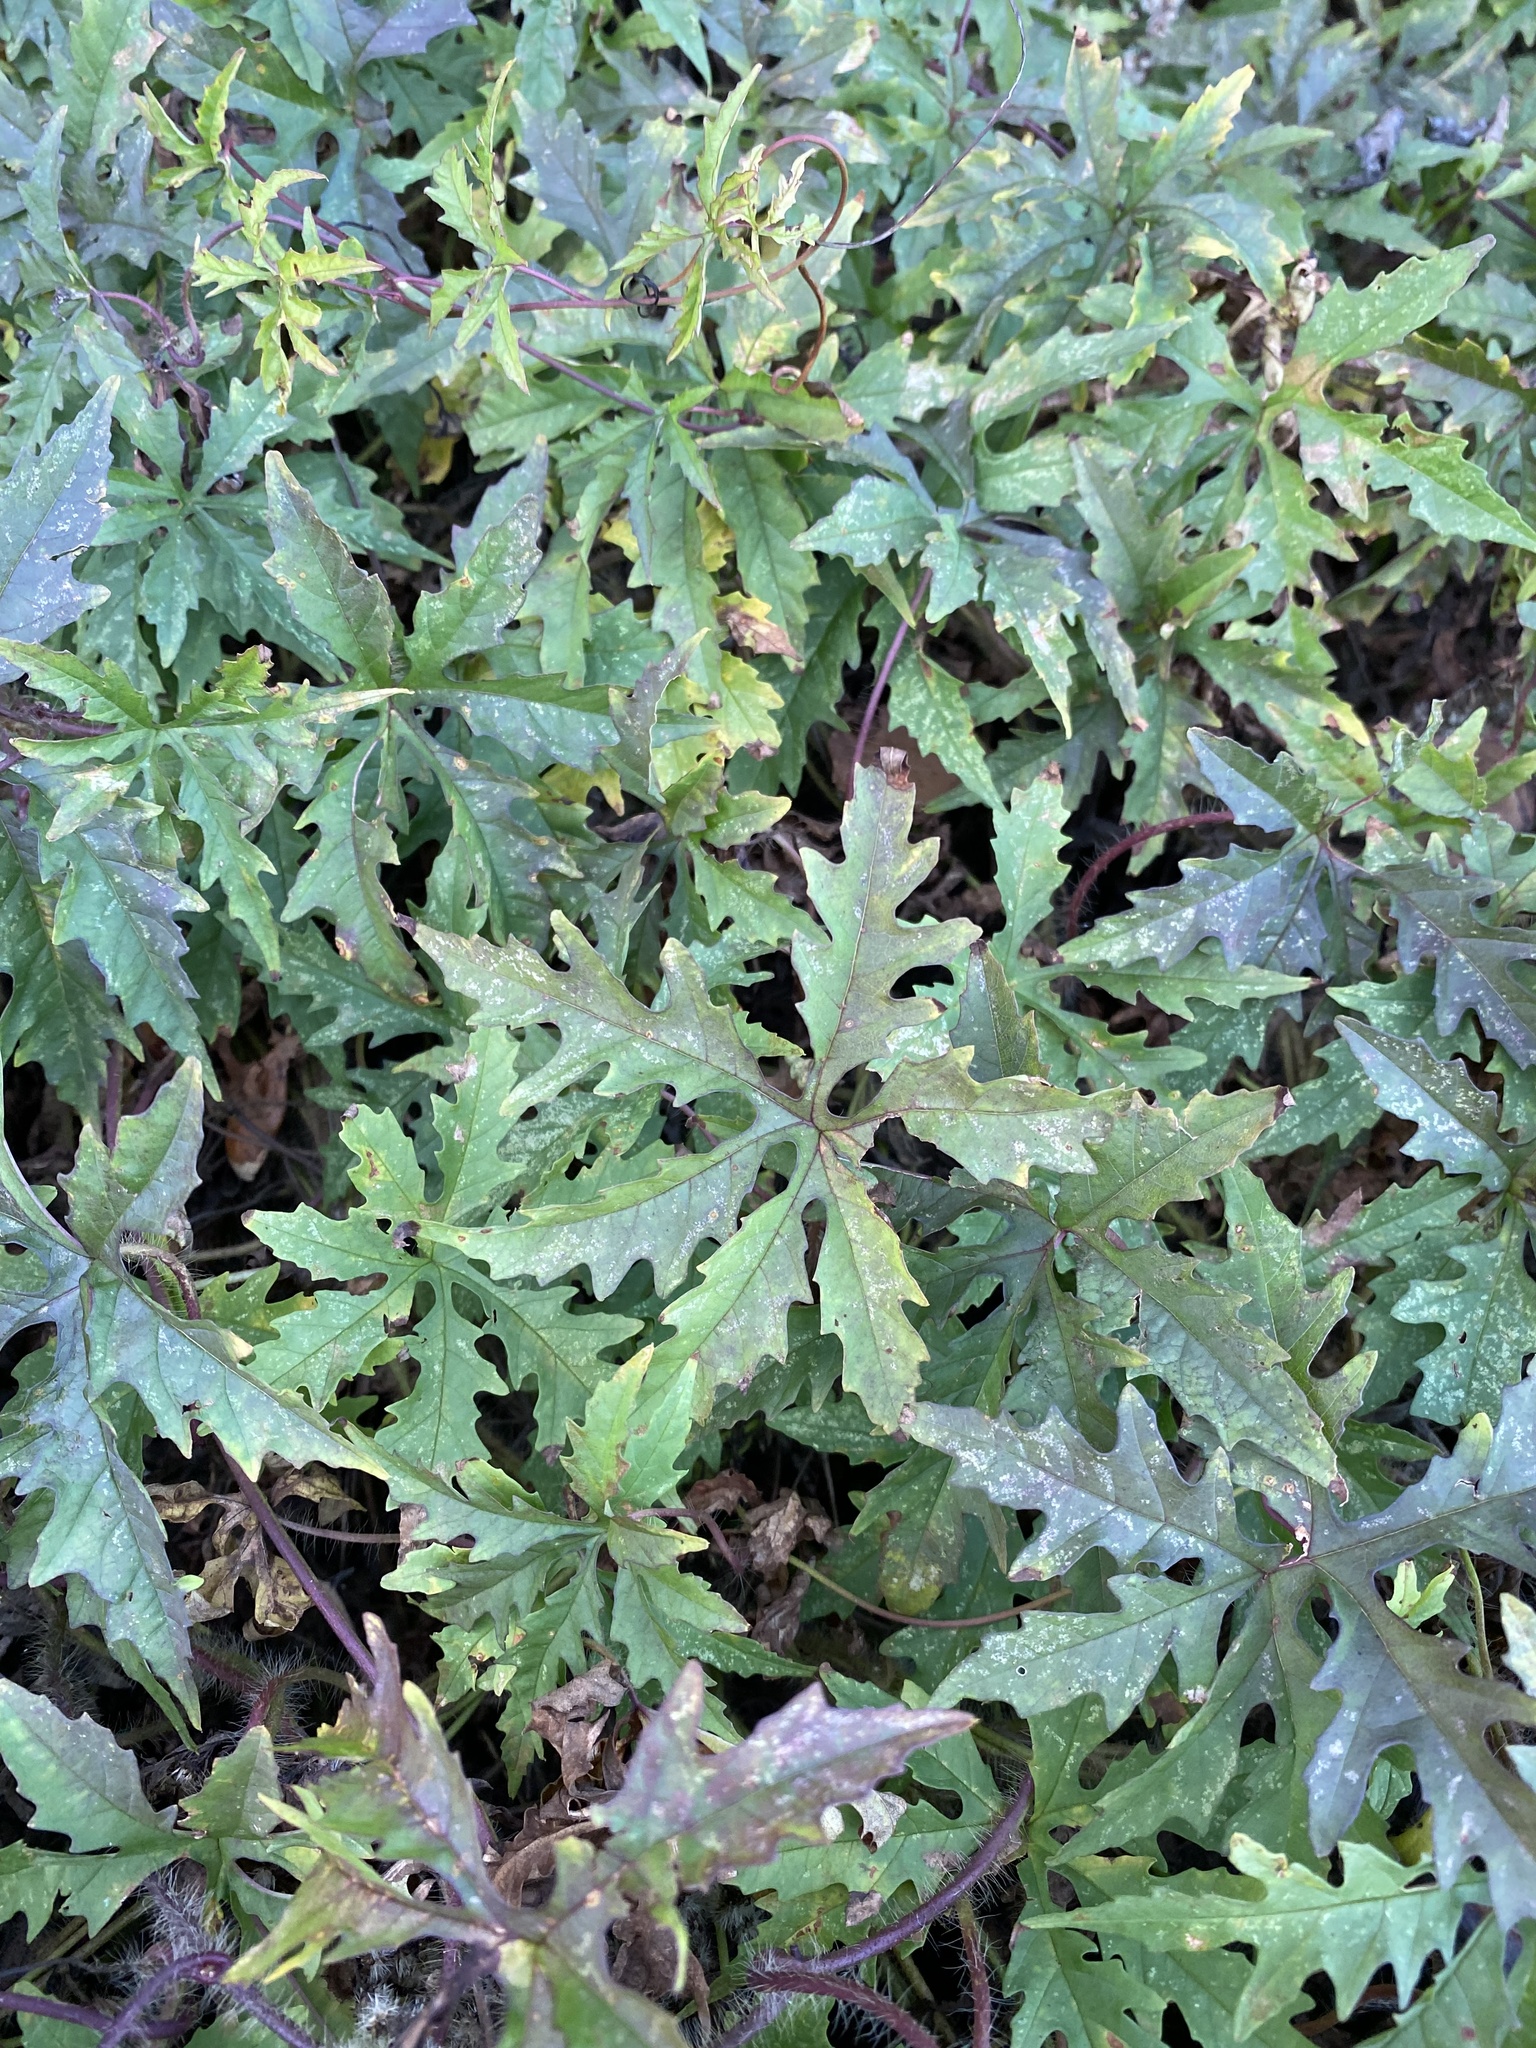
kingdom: Plantae
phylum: Tracheophyta
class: Magnoliopsida
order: Solanales
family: Convolvulaceae
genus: Distimake
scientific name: Distimake dissectus
